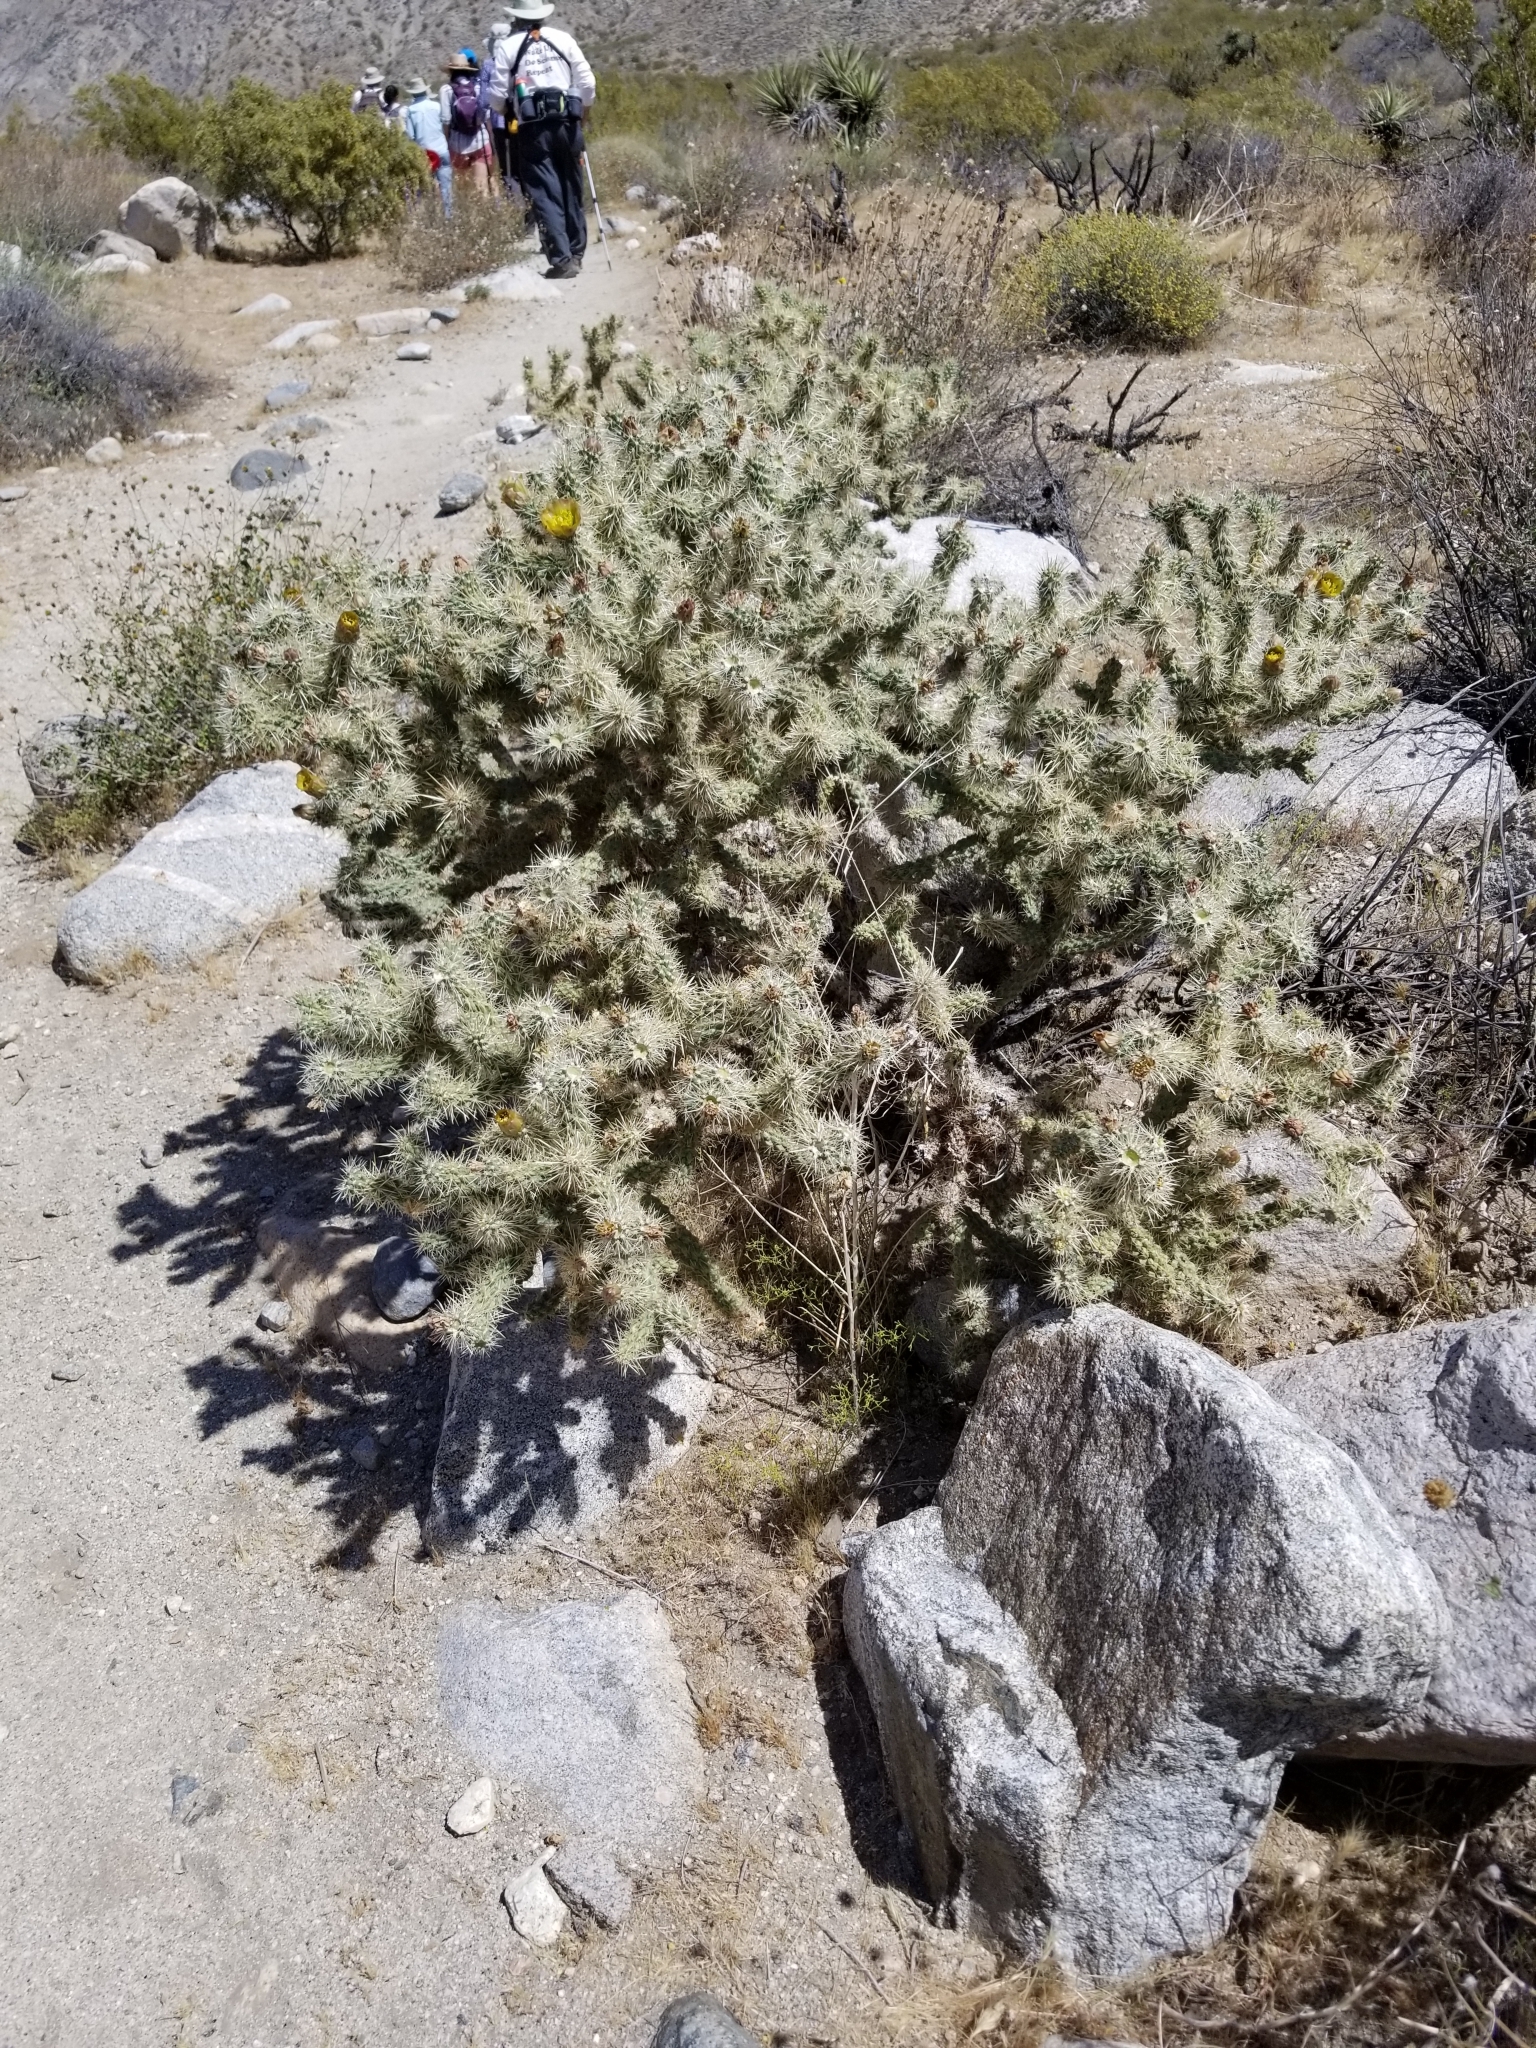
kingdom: Plantae
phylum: Tracheophyta
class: Magnoliopsida
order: Caryophyllales
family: Cactaceae
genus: Cylindropuntia
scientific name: Cylindropuntia echinocarpa
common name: Ground cholla
